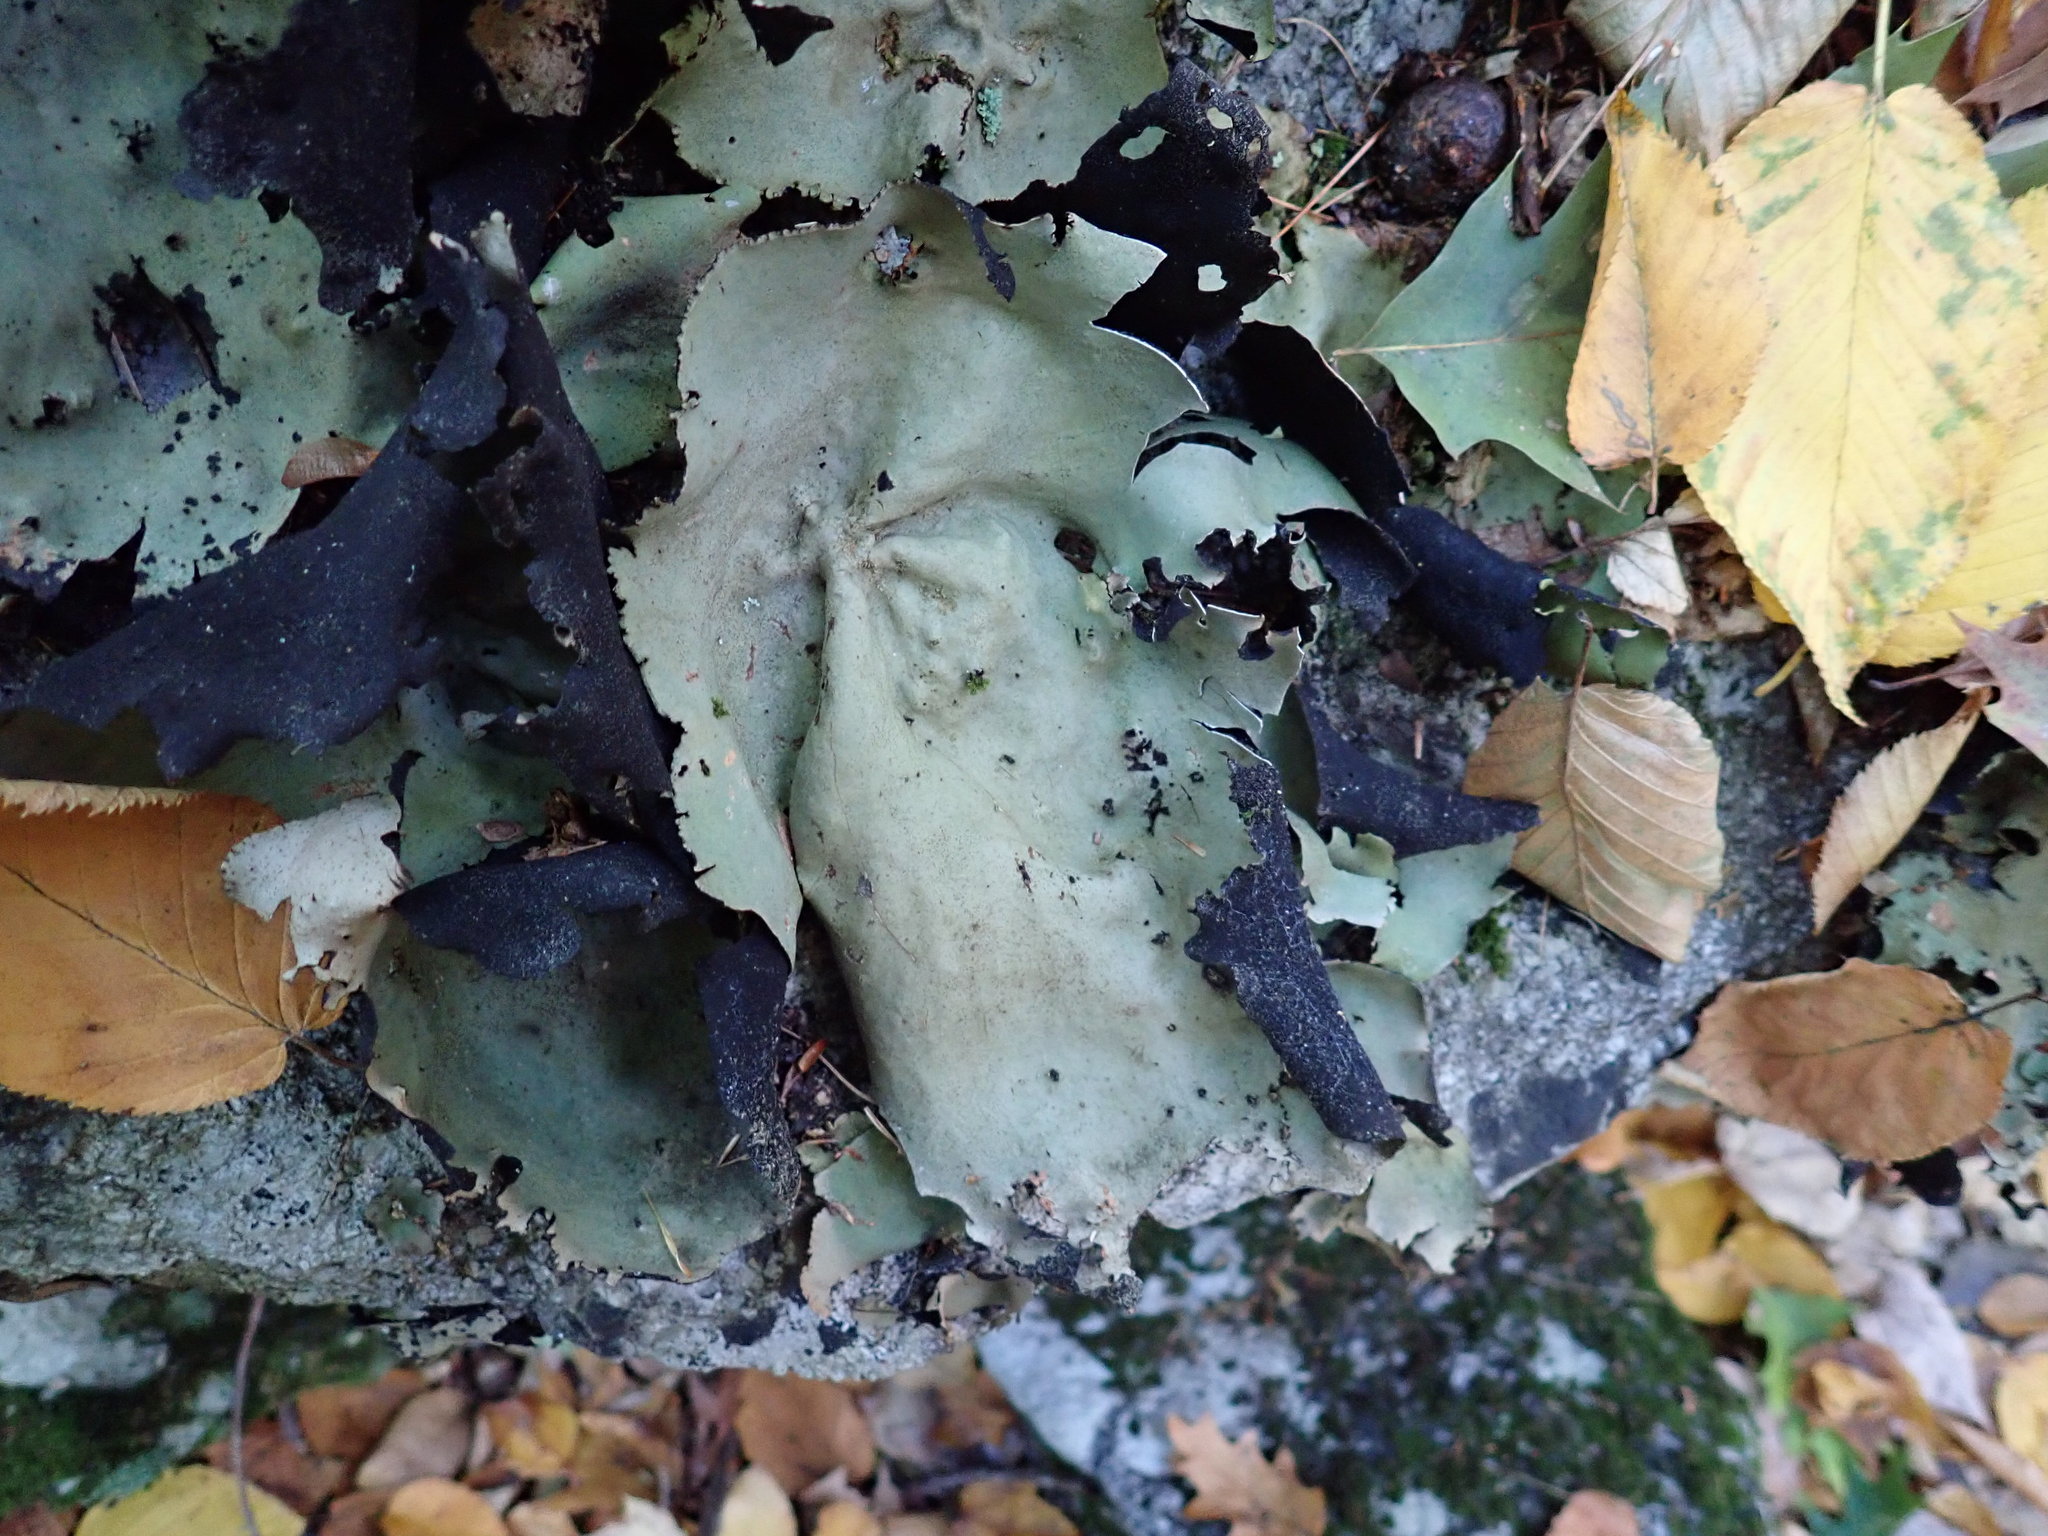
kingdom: Fungi
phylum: Ascomycota
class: Lecanoromycetes
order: Umbilicariales
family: Umbilicariaceae
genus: Umbilicaria
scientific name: Umbilicaria mammulata
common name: Smooth rock tripe
